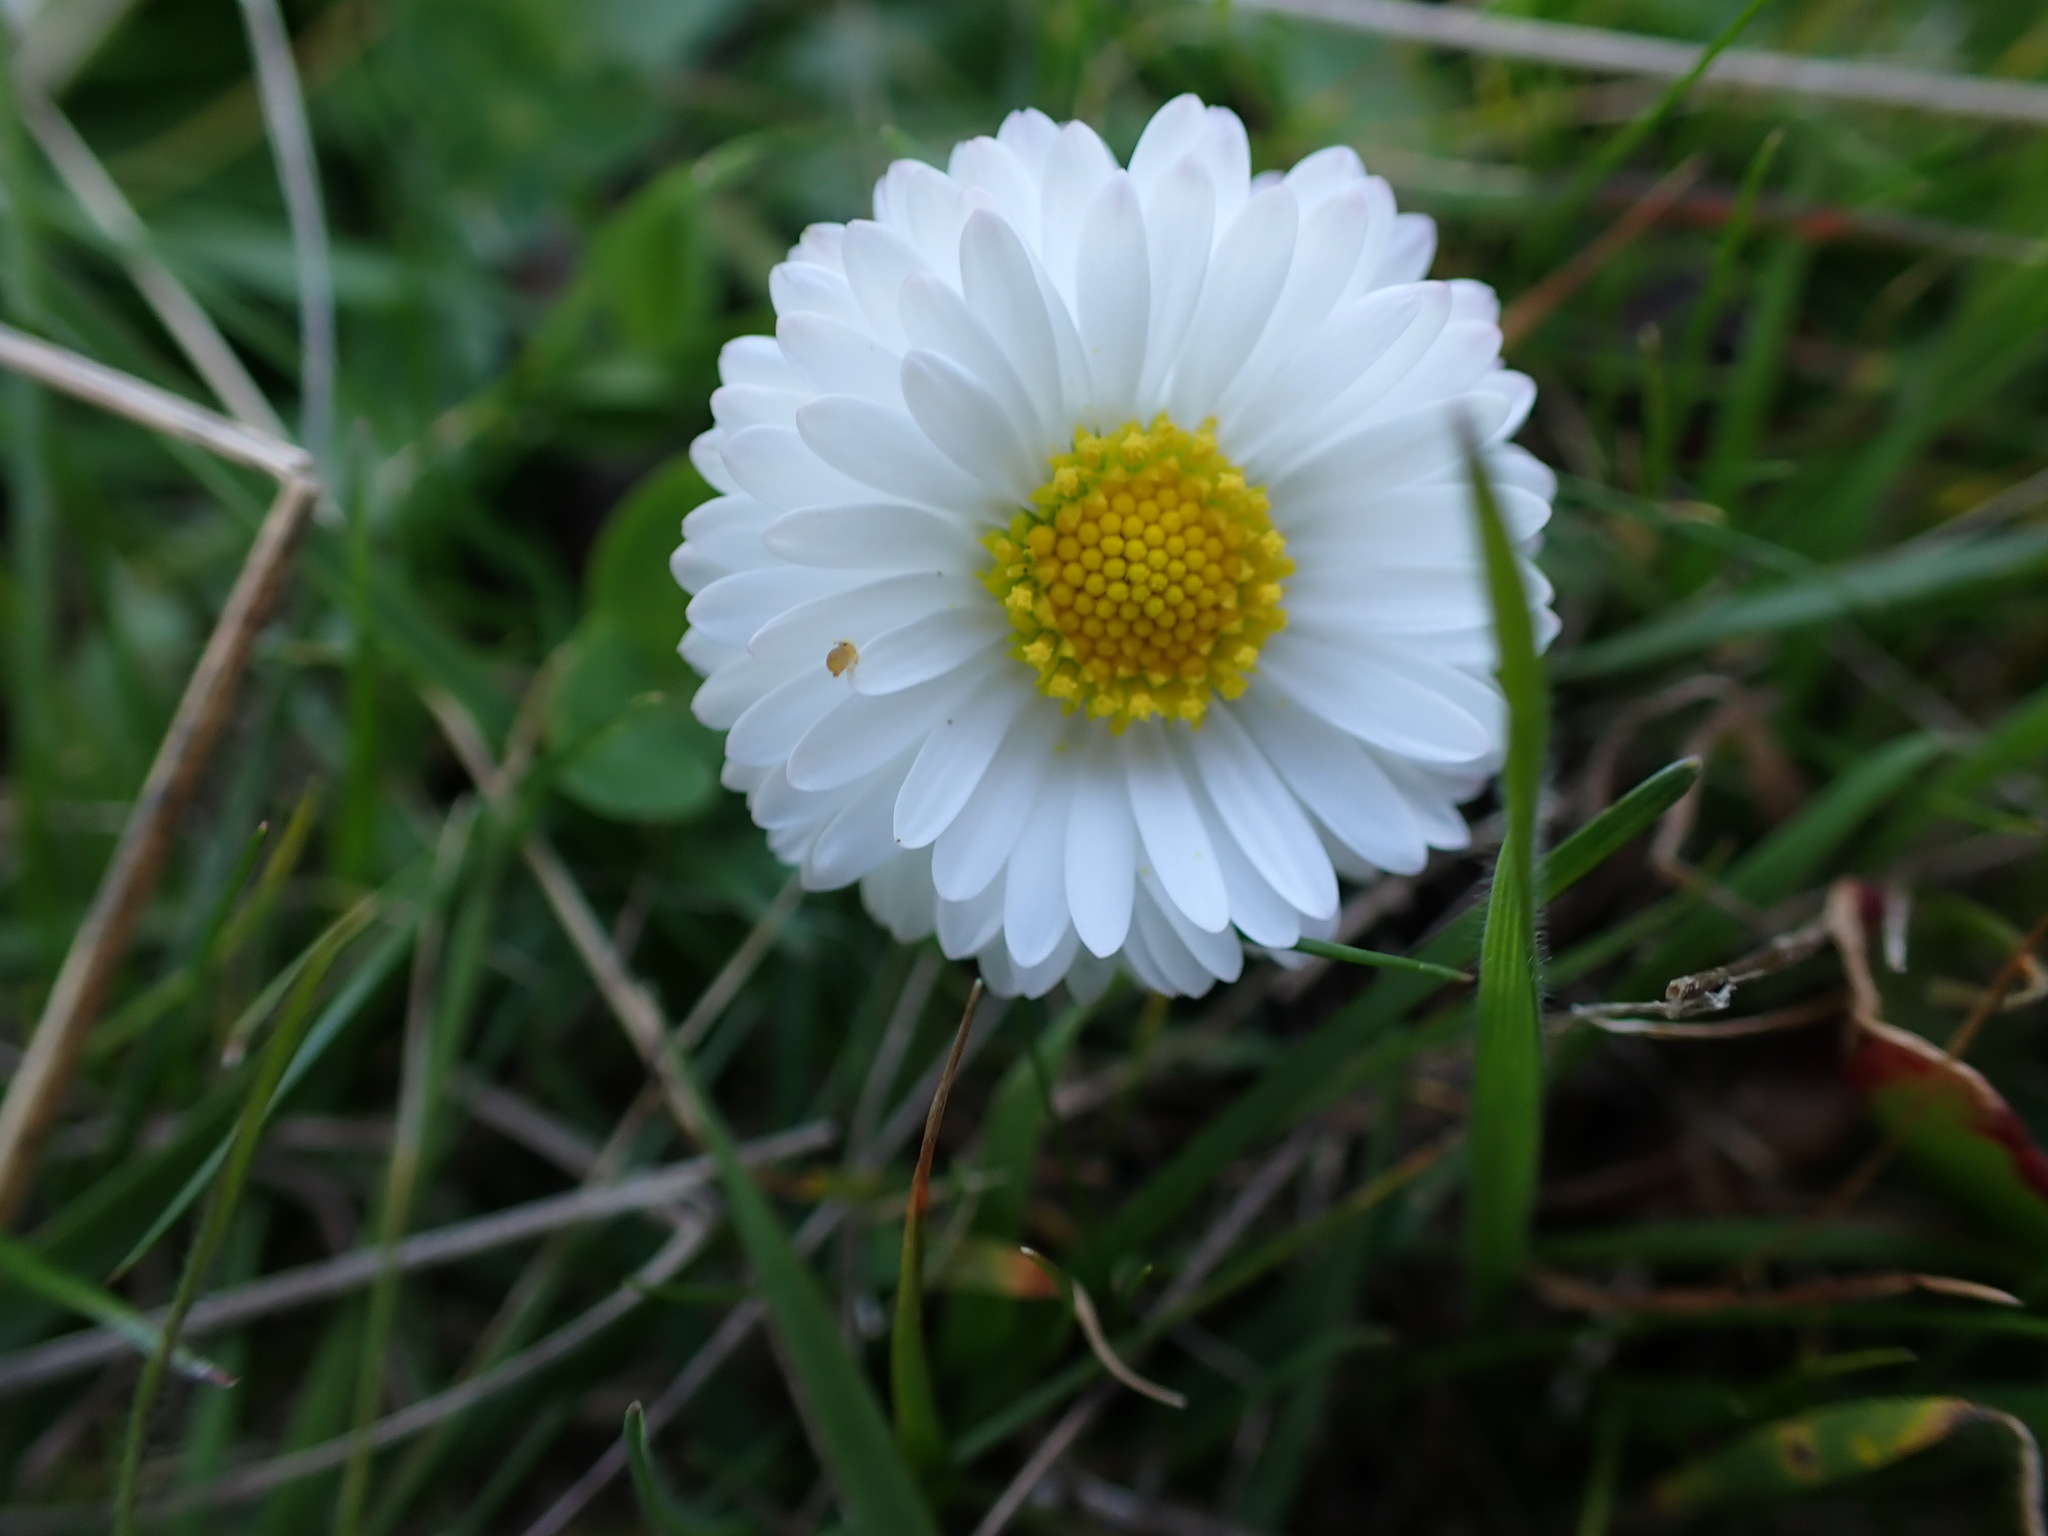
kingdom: Plantae
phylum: Tracheophyta
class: Magnoliopsida
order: Asterales
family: Asteraceae
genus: Bellis
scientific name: Bellis perennis
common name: Lawndaisy
